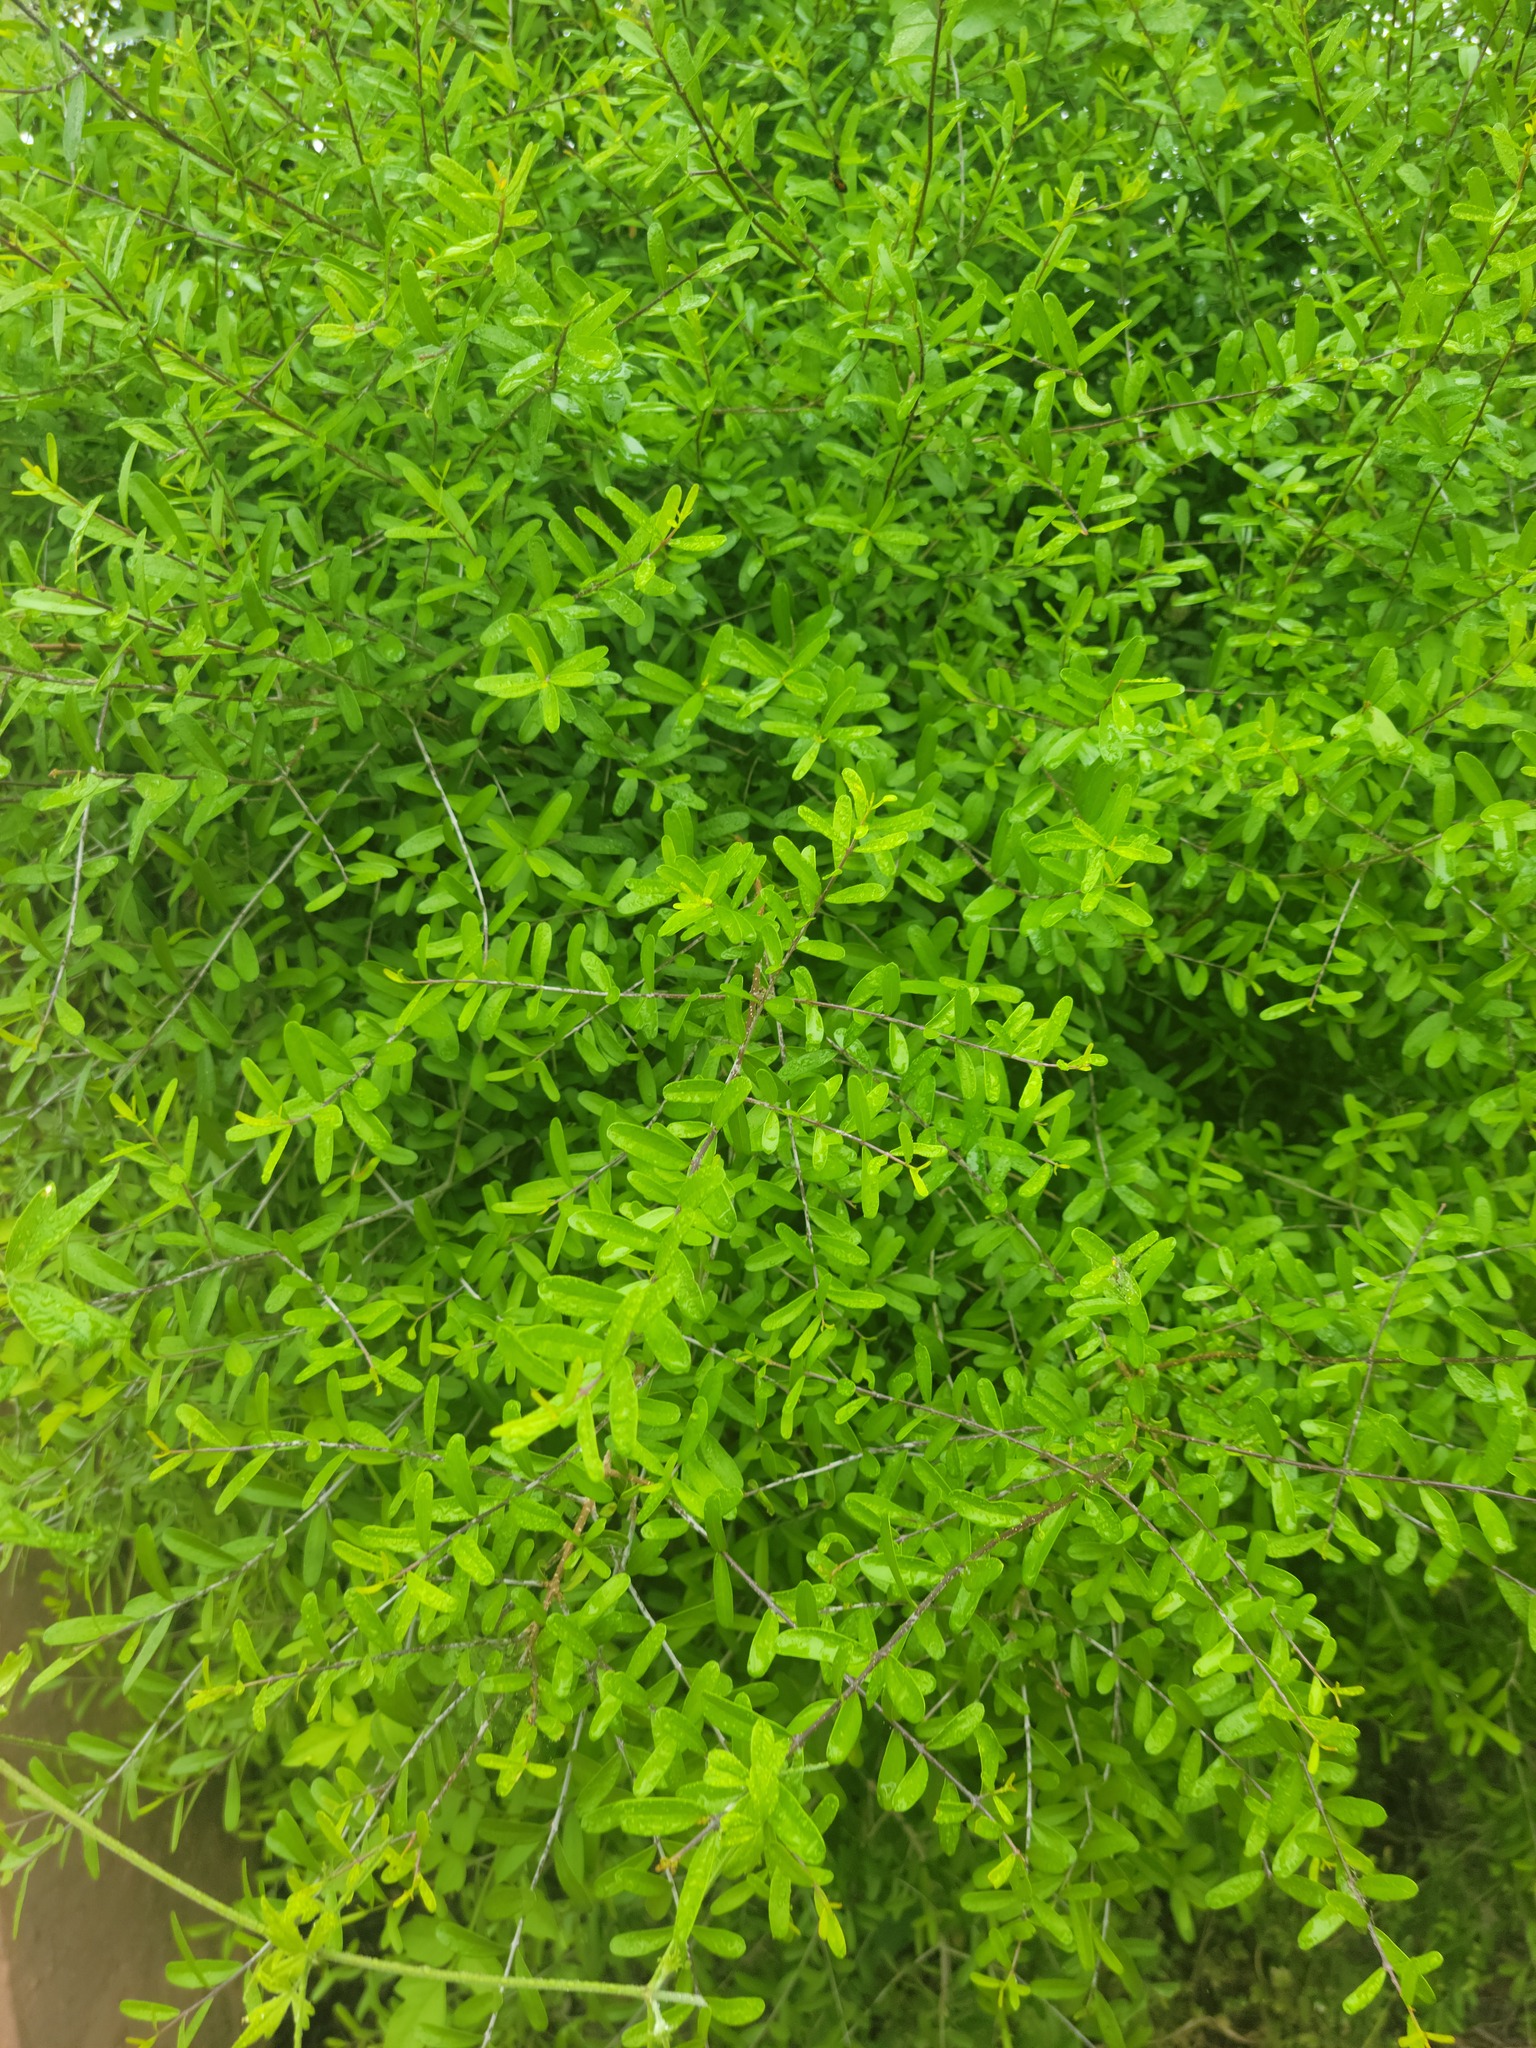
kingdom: Plantae
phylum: Tracheophyta
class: Magnoliopsida
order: Lamiales
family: Oleaceae
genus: Forestiera
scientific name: Forestiera angustifolia
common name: Elbowbush
